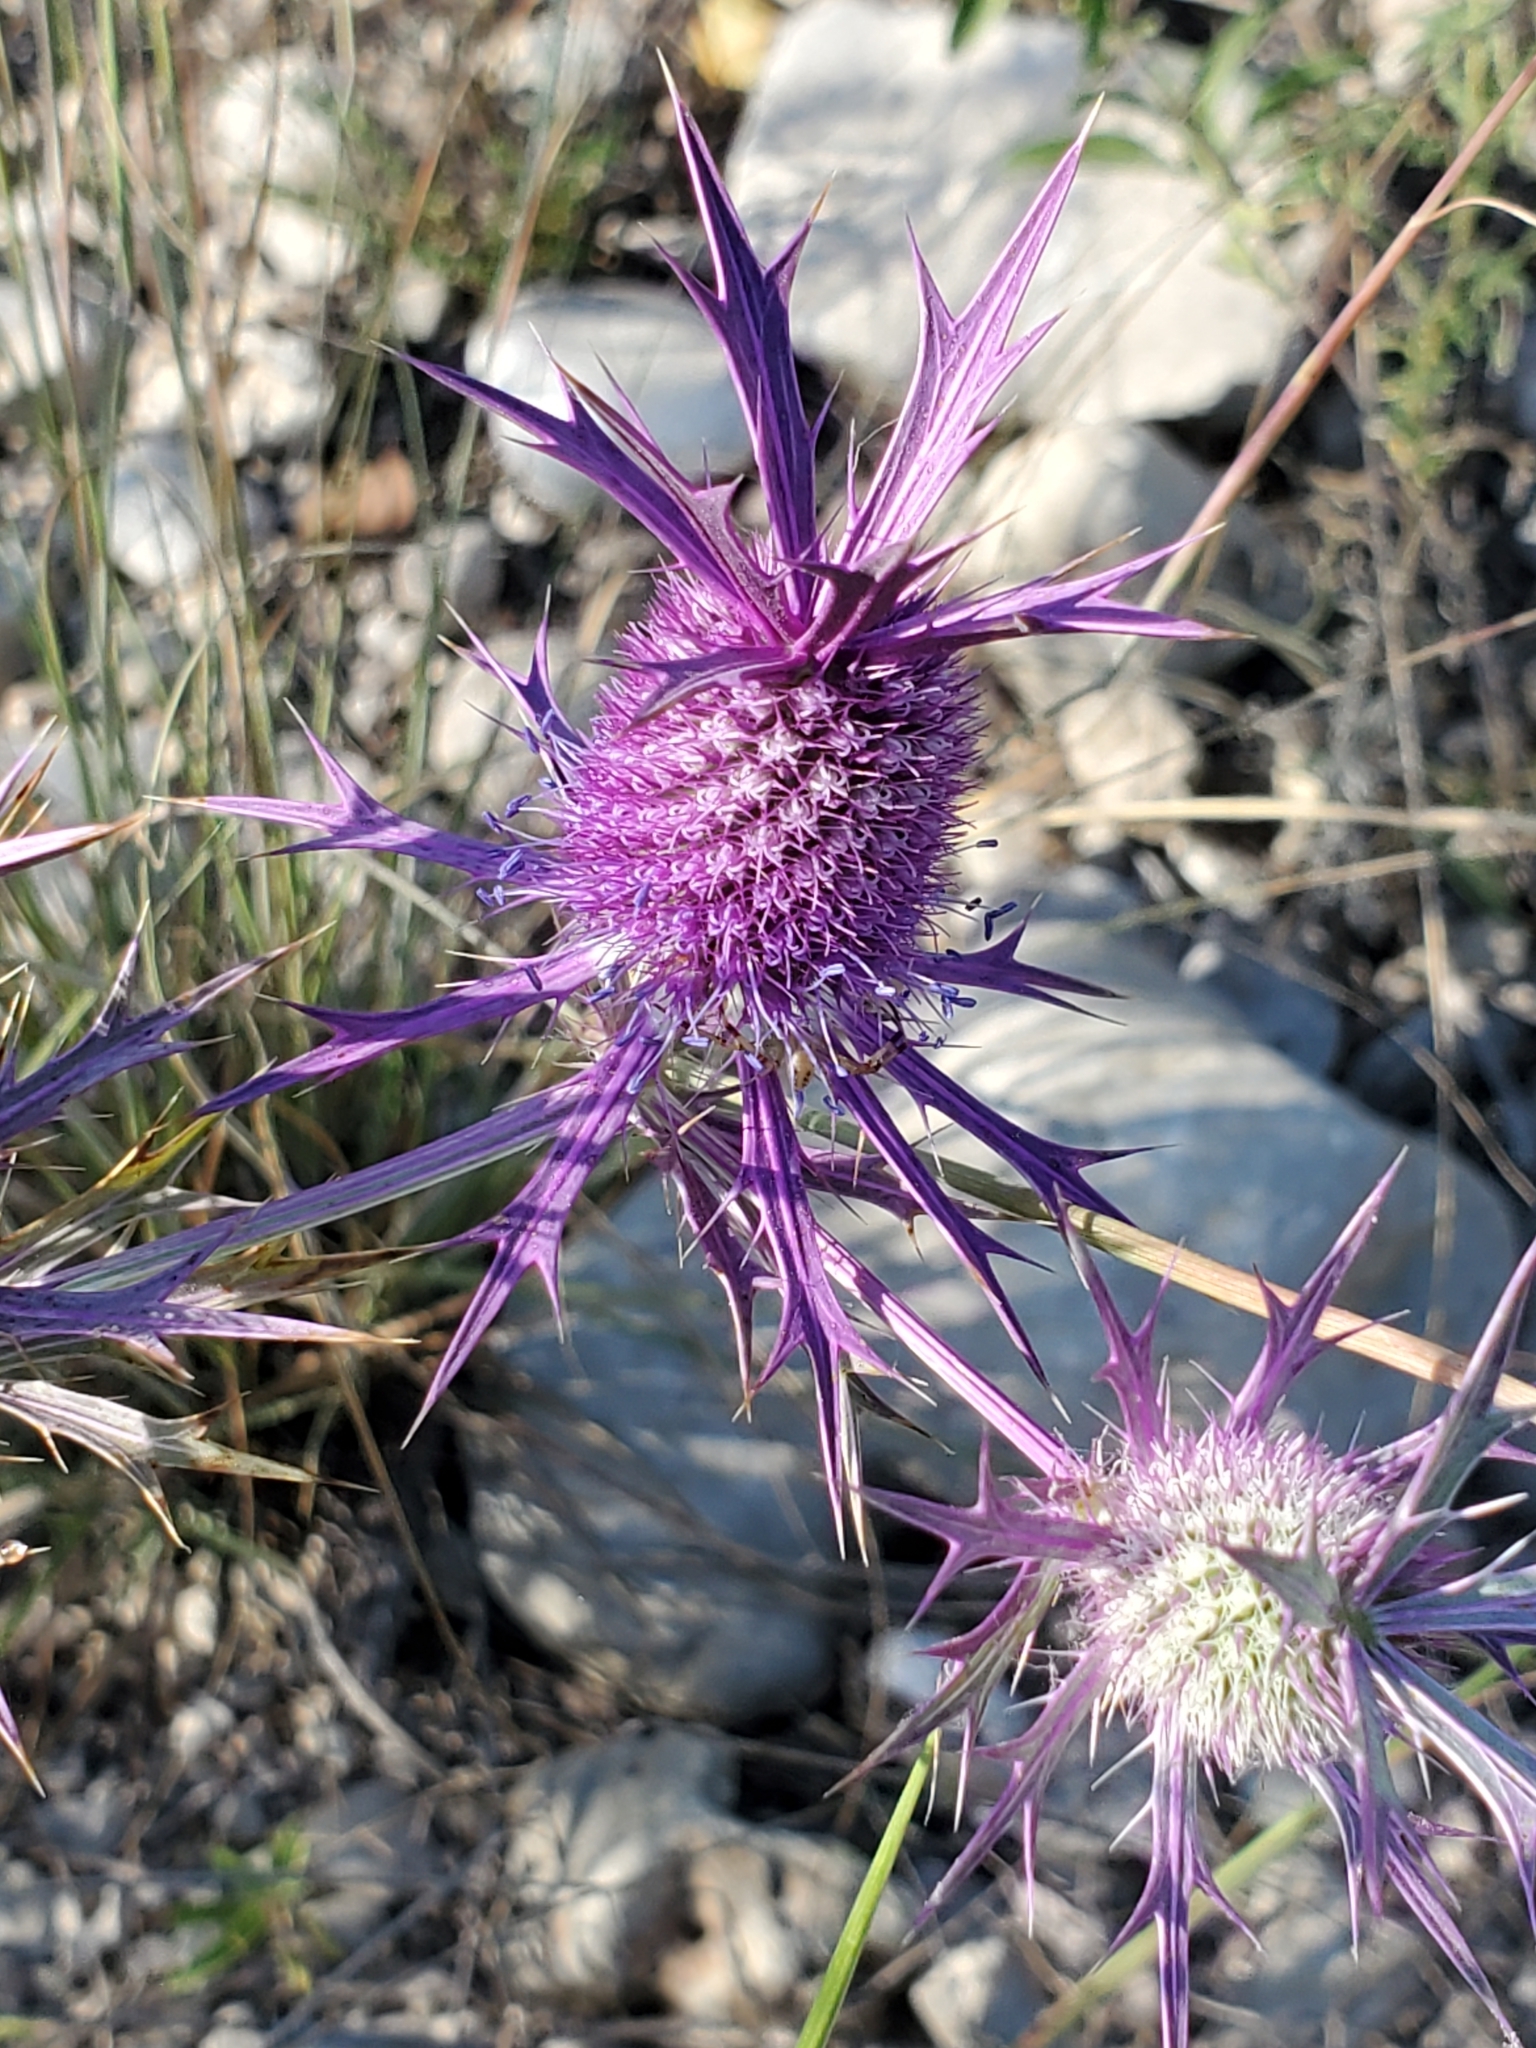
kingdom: Plantae
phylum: Tracheophyta
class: Magnoliopsida
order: Apiales
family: Apiaceae
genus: Eryngium
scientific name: Eryngium leavenworthii
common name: Leavenworth's eryngo
